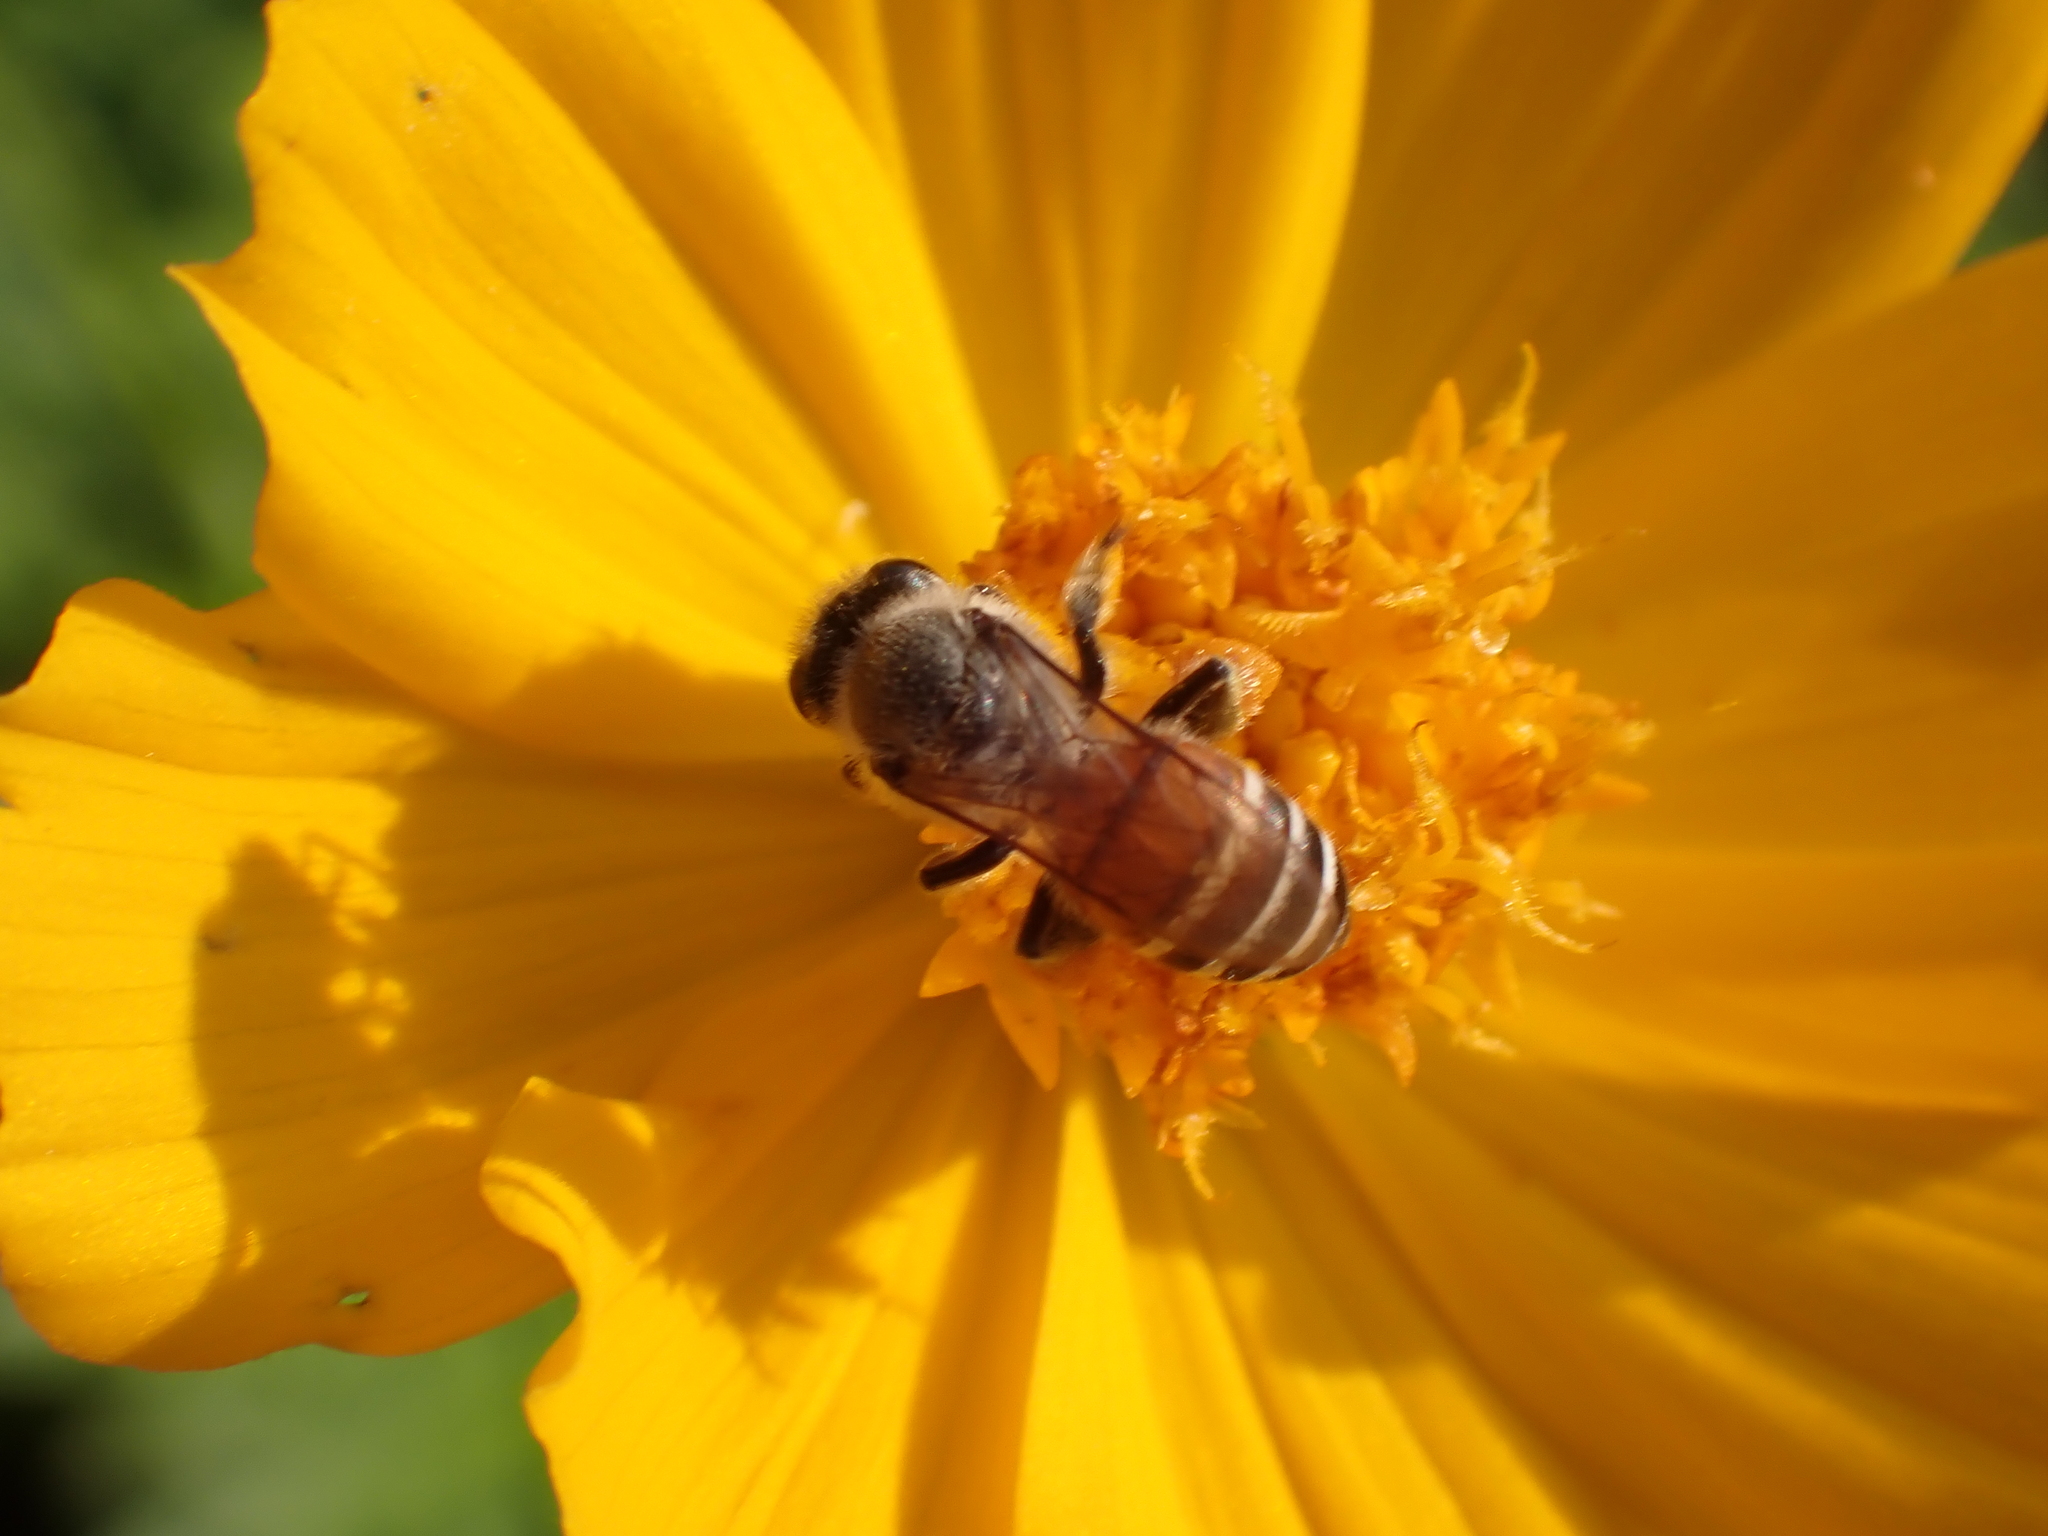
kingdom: Animalia
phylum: Arthropoda
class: Insecta
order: Hymenoptera
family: Apidae
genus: Apis
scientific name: Apis florea
